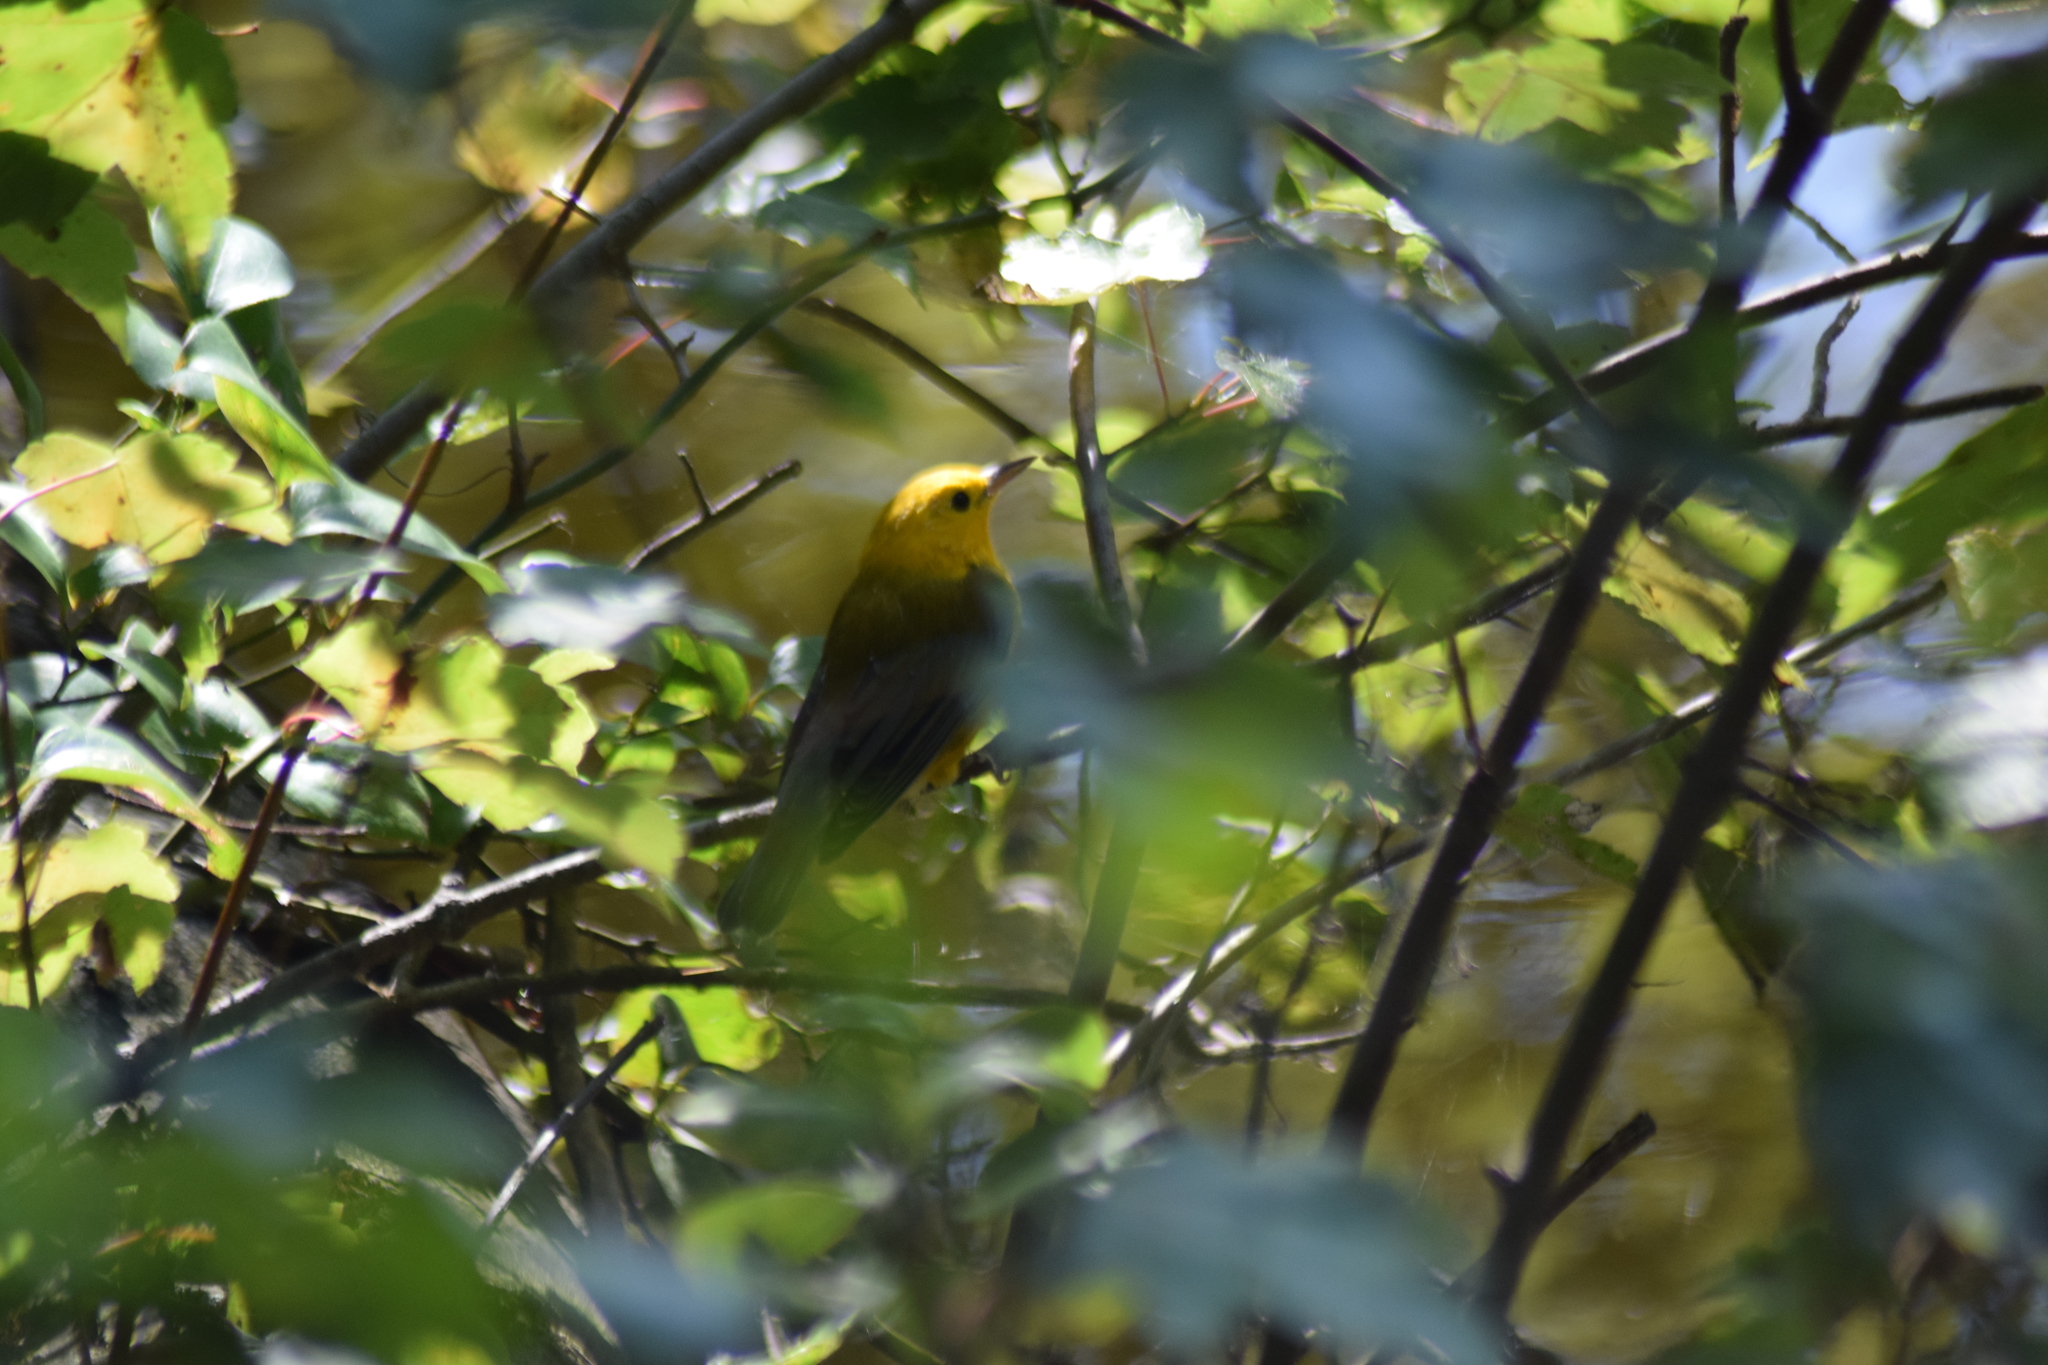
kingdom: Animalia
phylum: Chordata
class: Aves
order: Passeriformes
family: Parulidae
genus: Protonotaria
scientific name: Protonotaria citrea
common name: Prothonotary warbler
